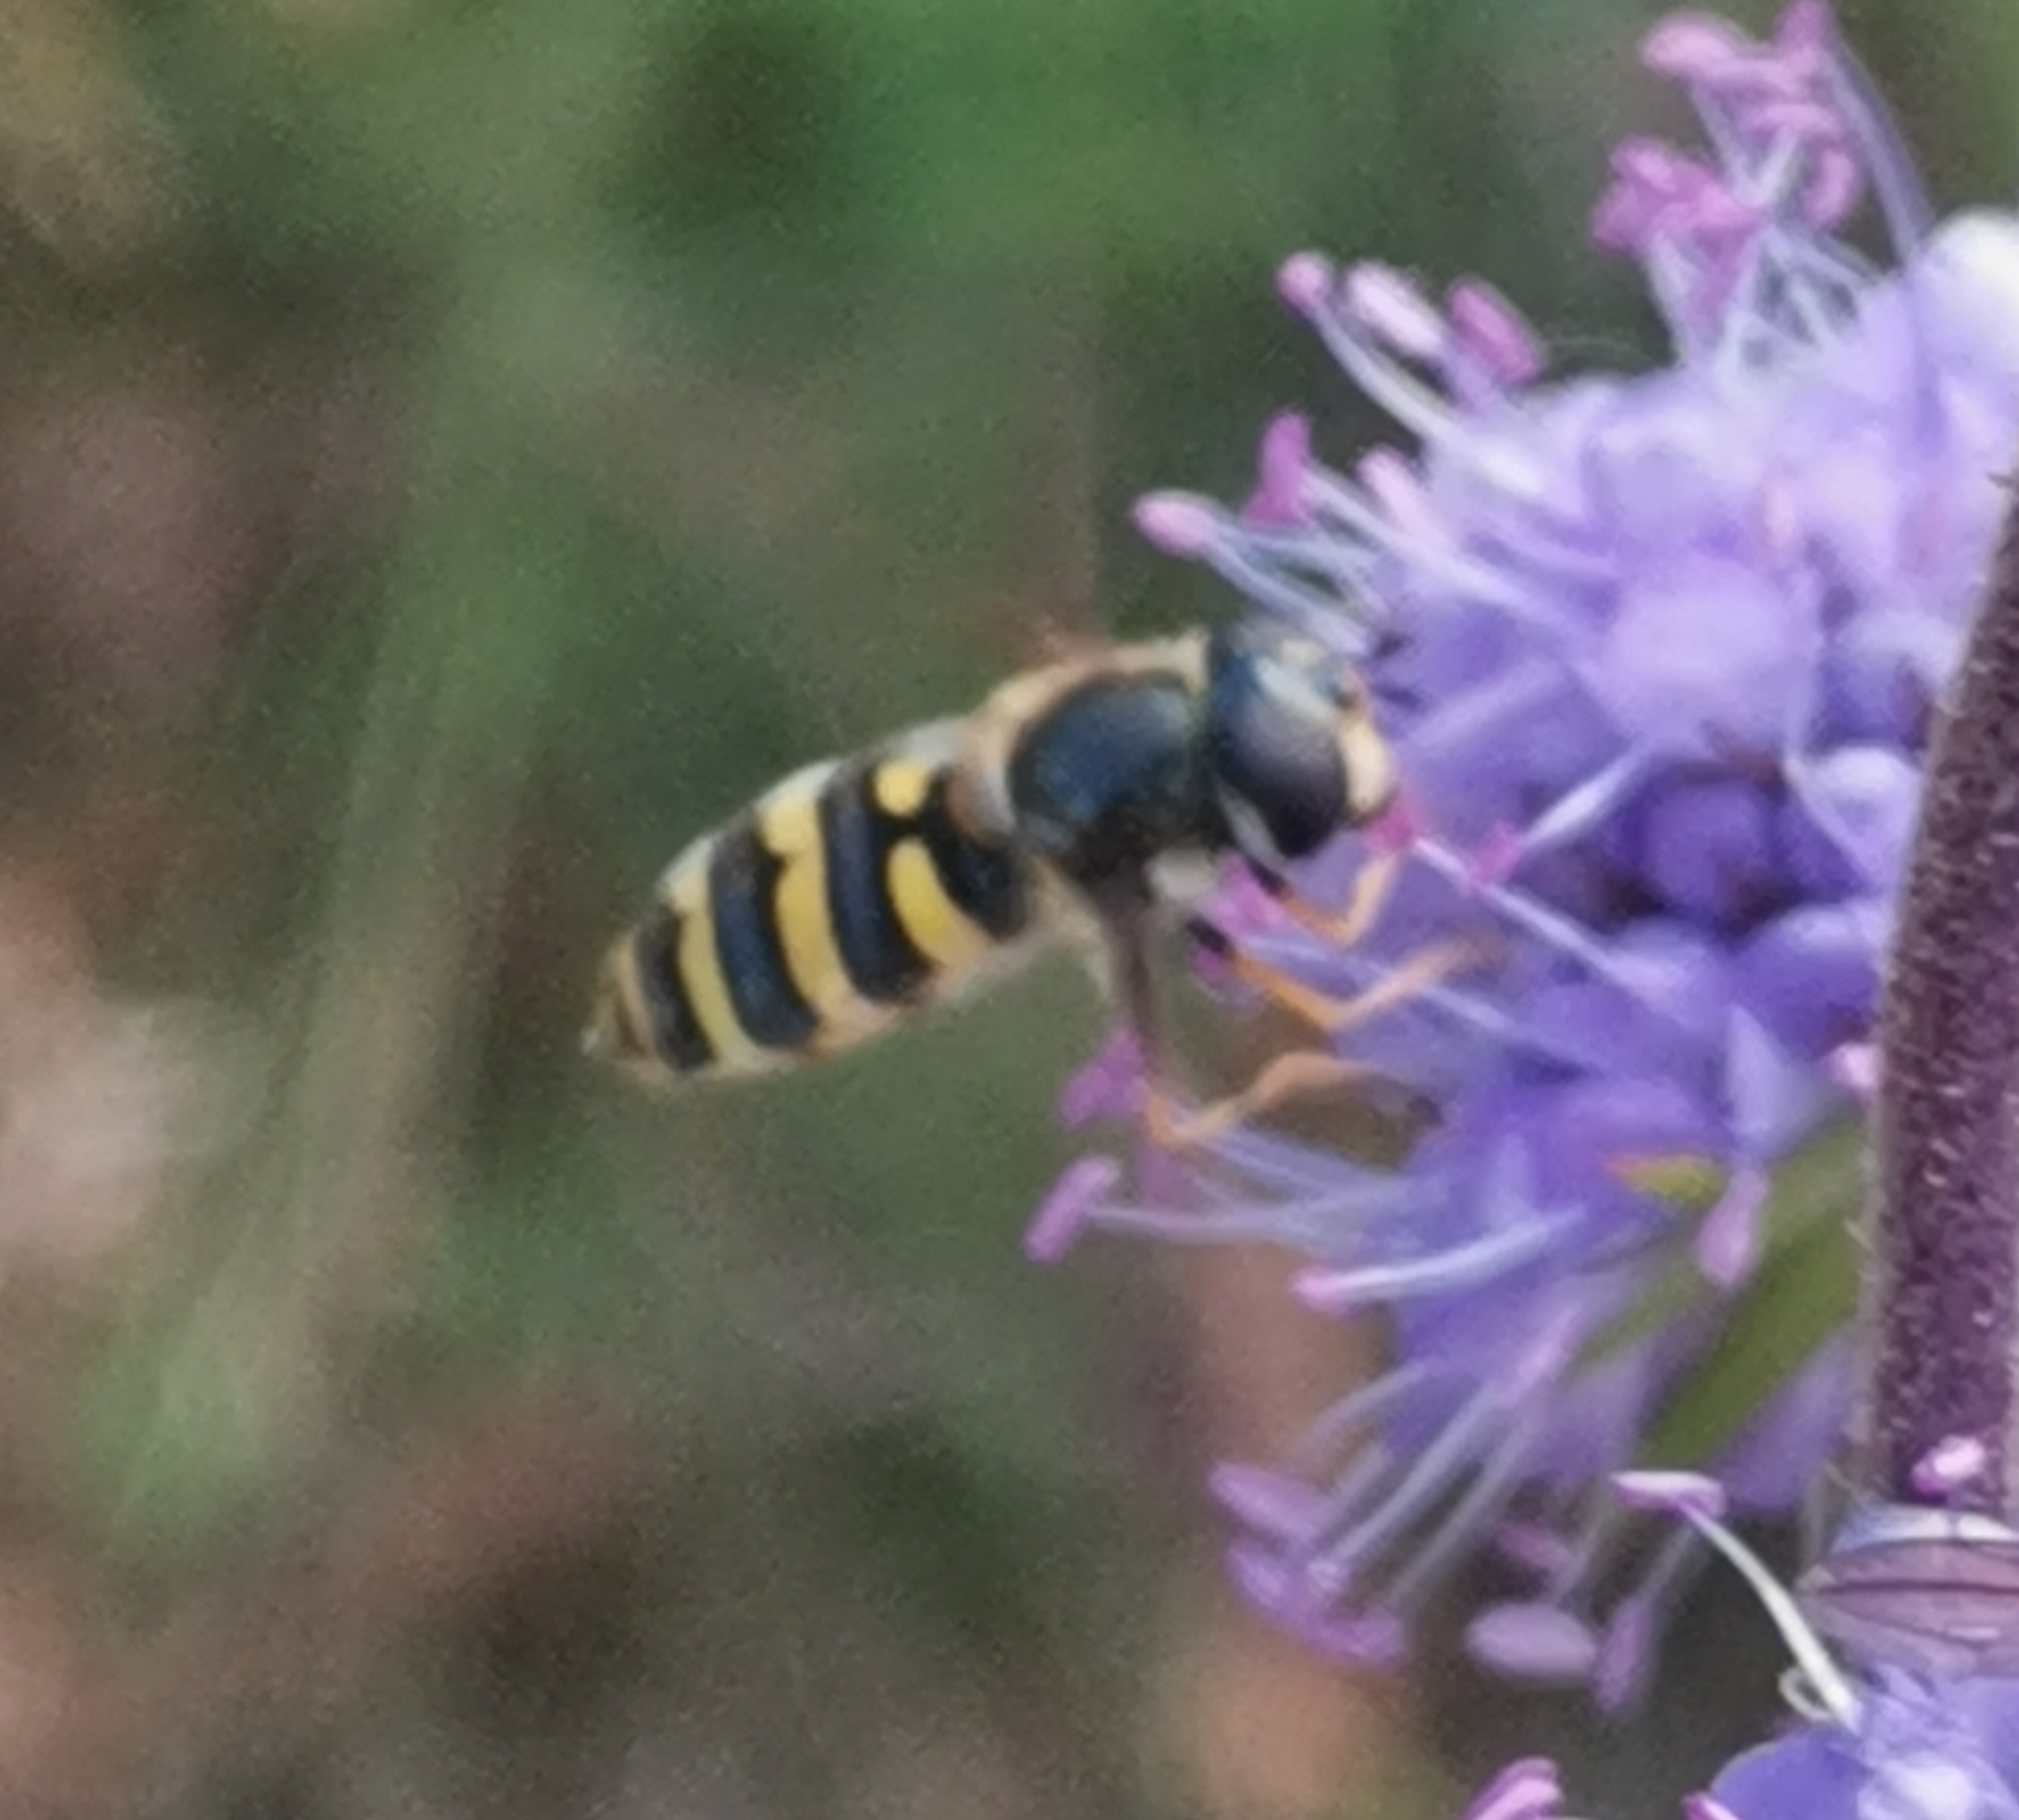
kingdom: Animalia
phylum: Arthropoda
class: Insecta
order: Diptera
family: Syrphidae
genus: Megasyrphus
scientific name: Megasyrphus erratica
